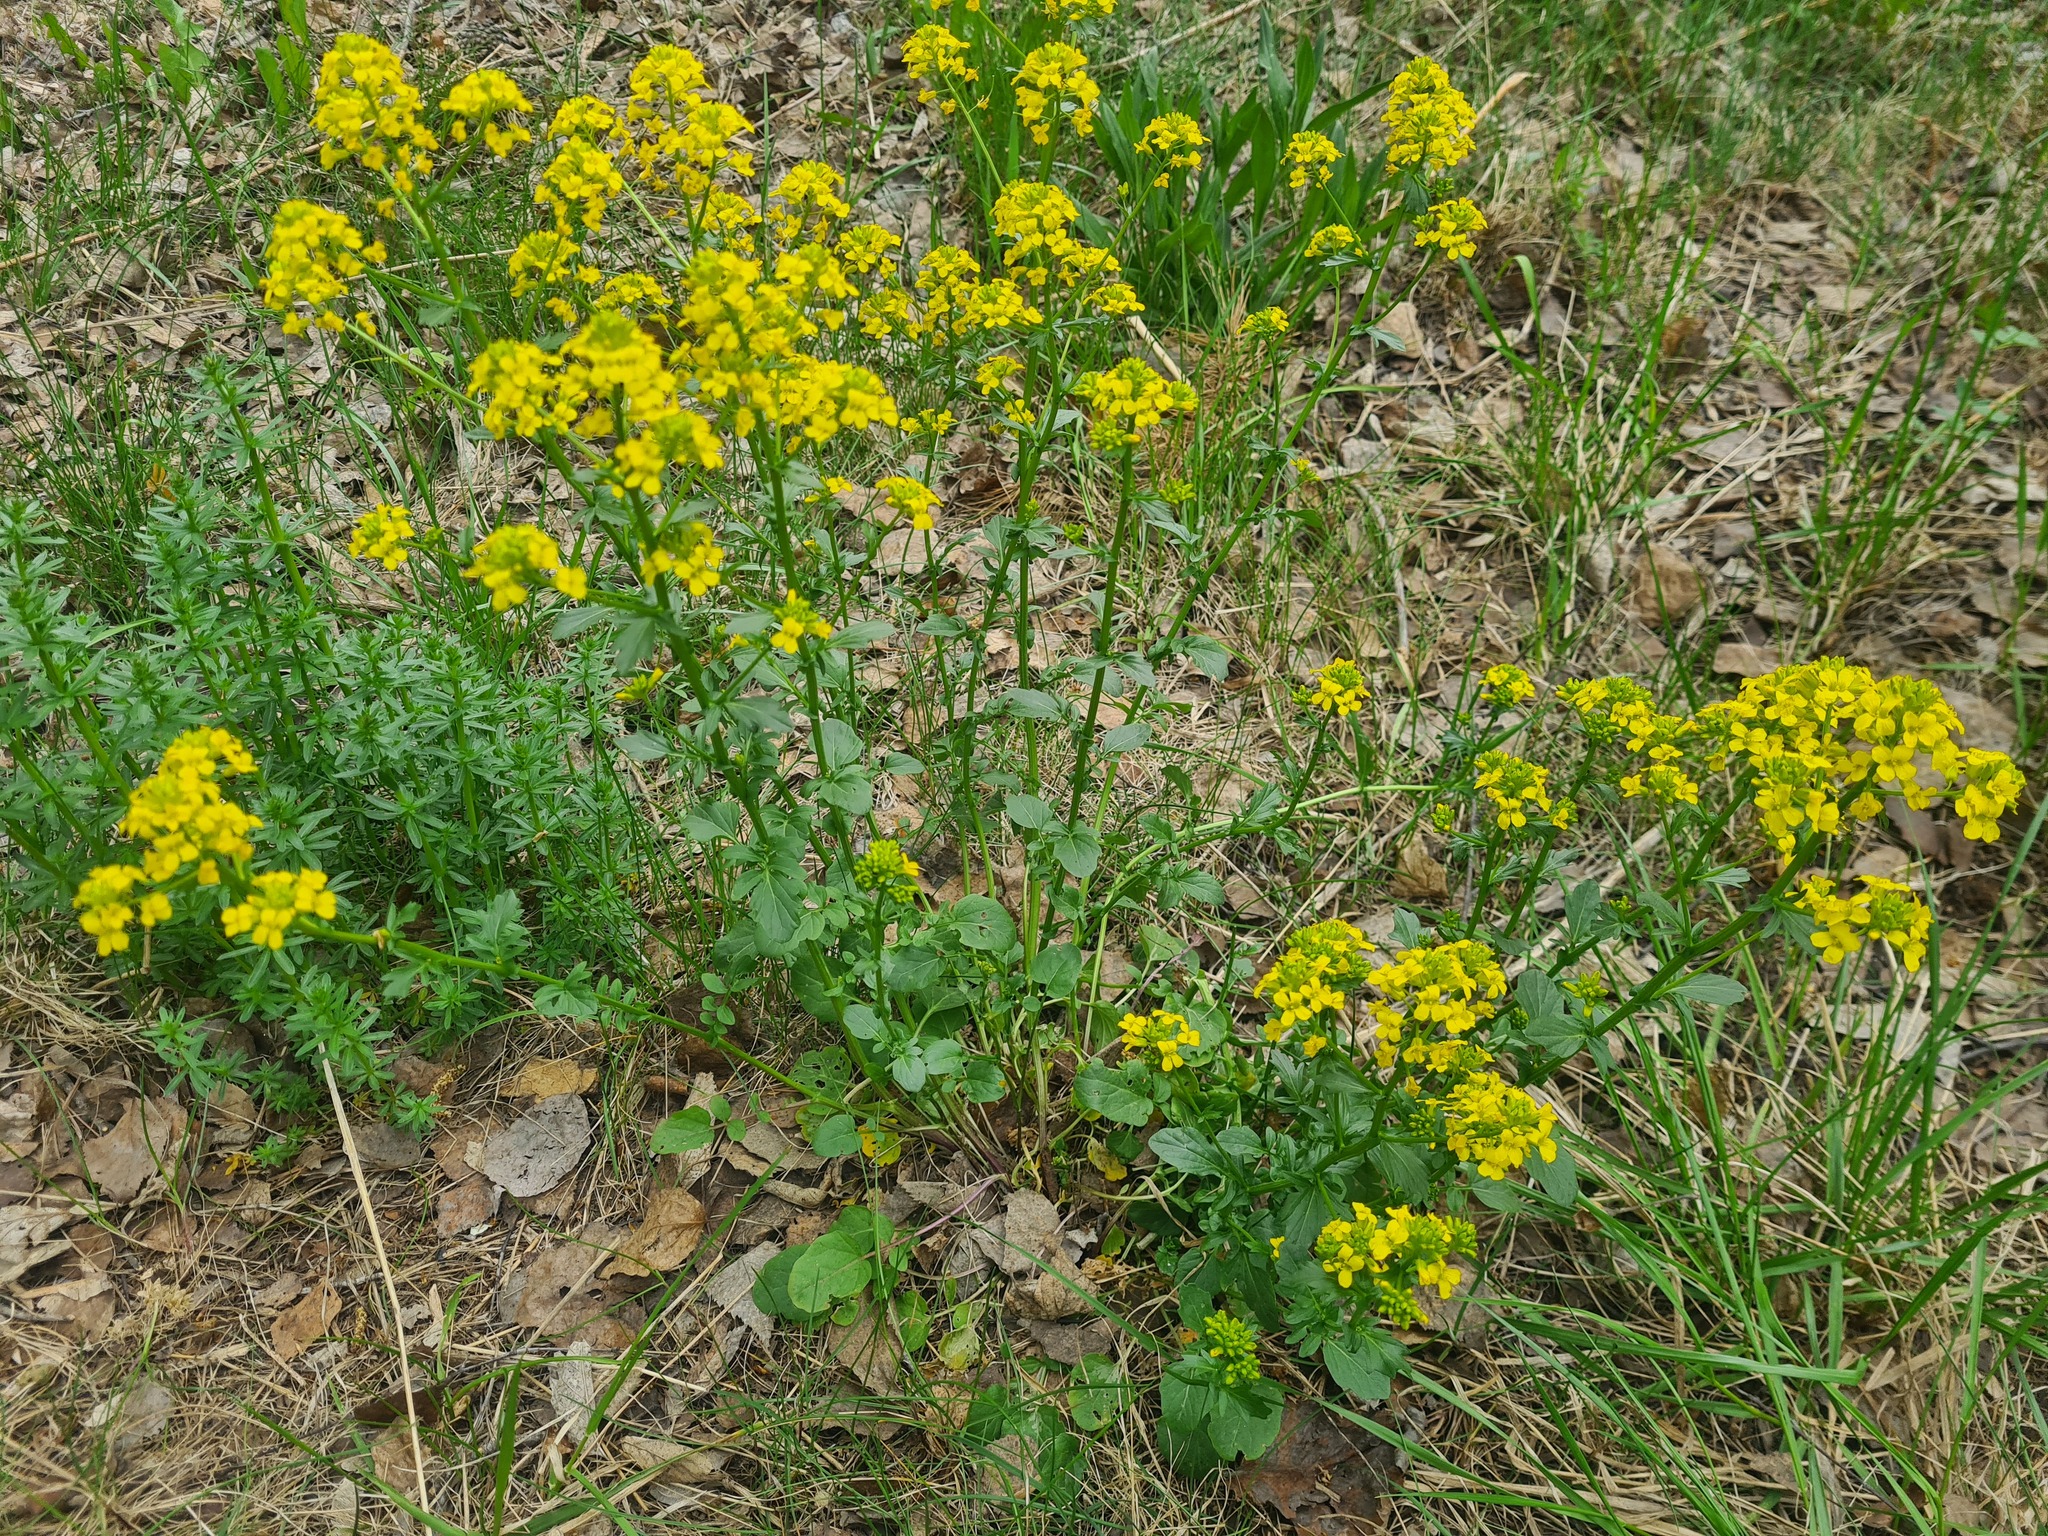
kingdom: Plantae
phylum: Tracheophyta
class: Magnoliopsida
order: Brassicales
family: Brassicaceae
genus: Barbarea
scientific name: Barbarea vulgaris
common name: Cressy-greens
